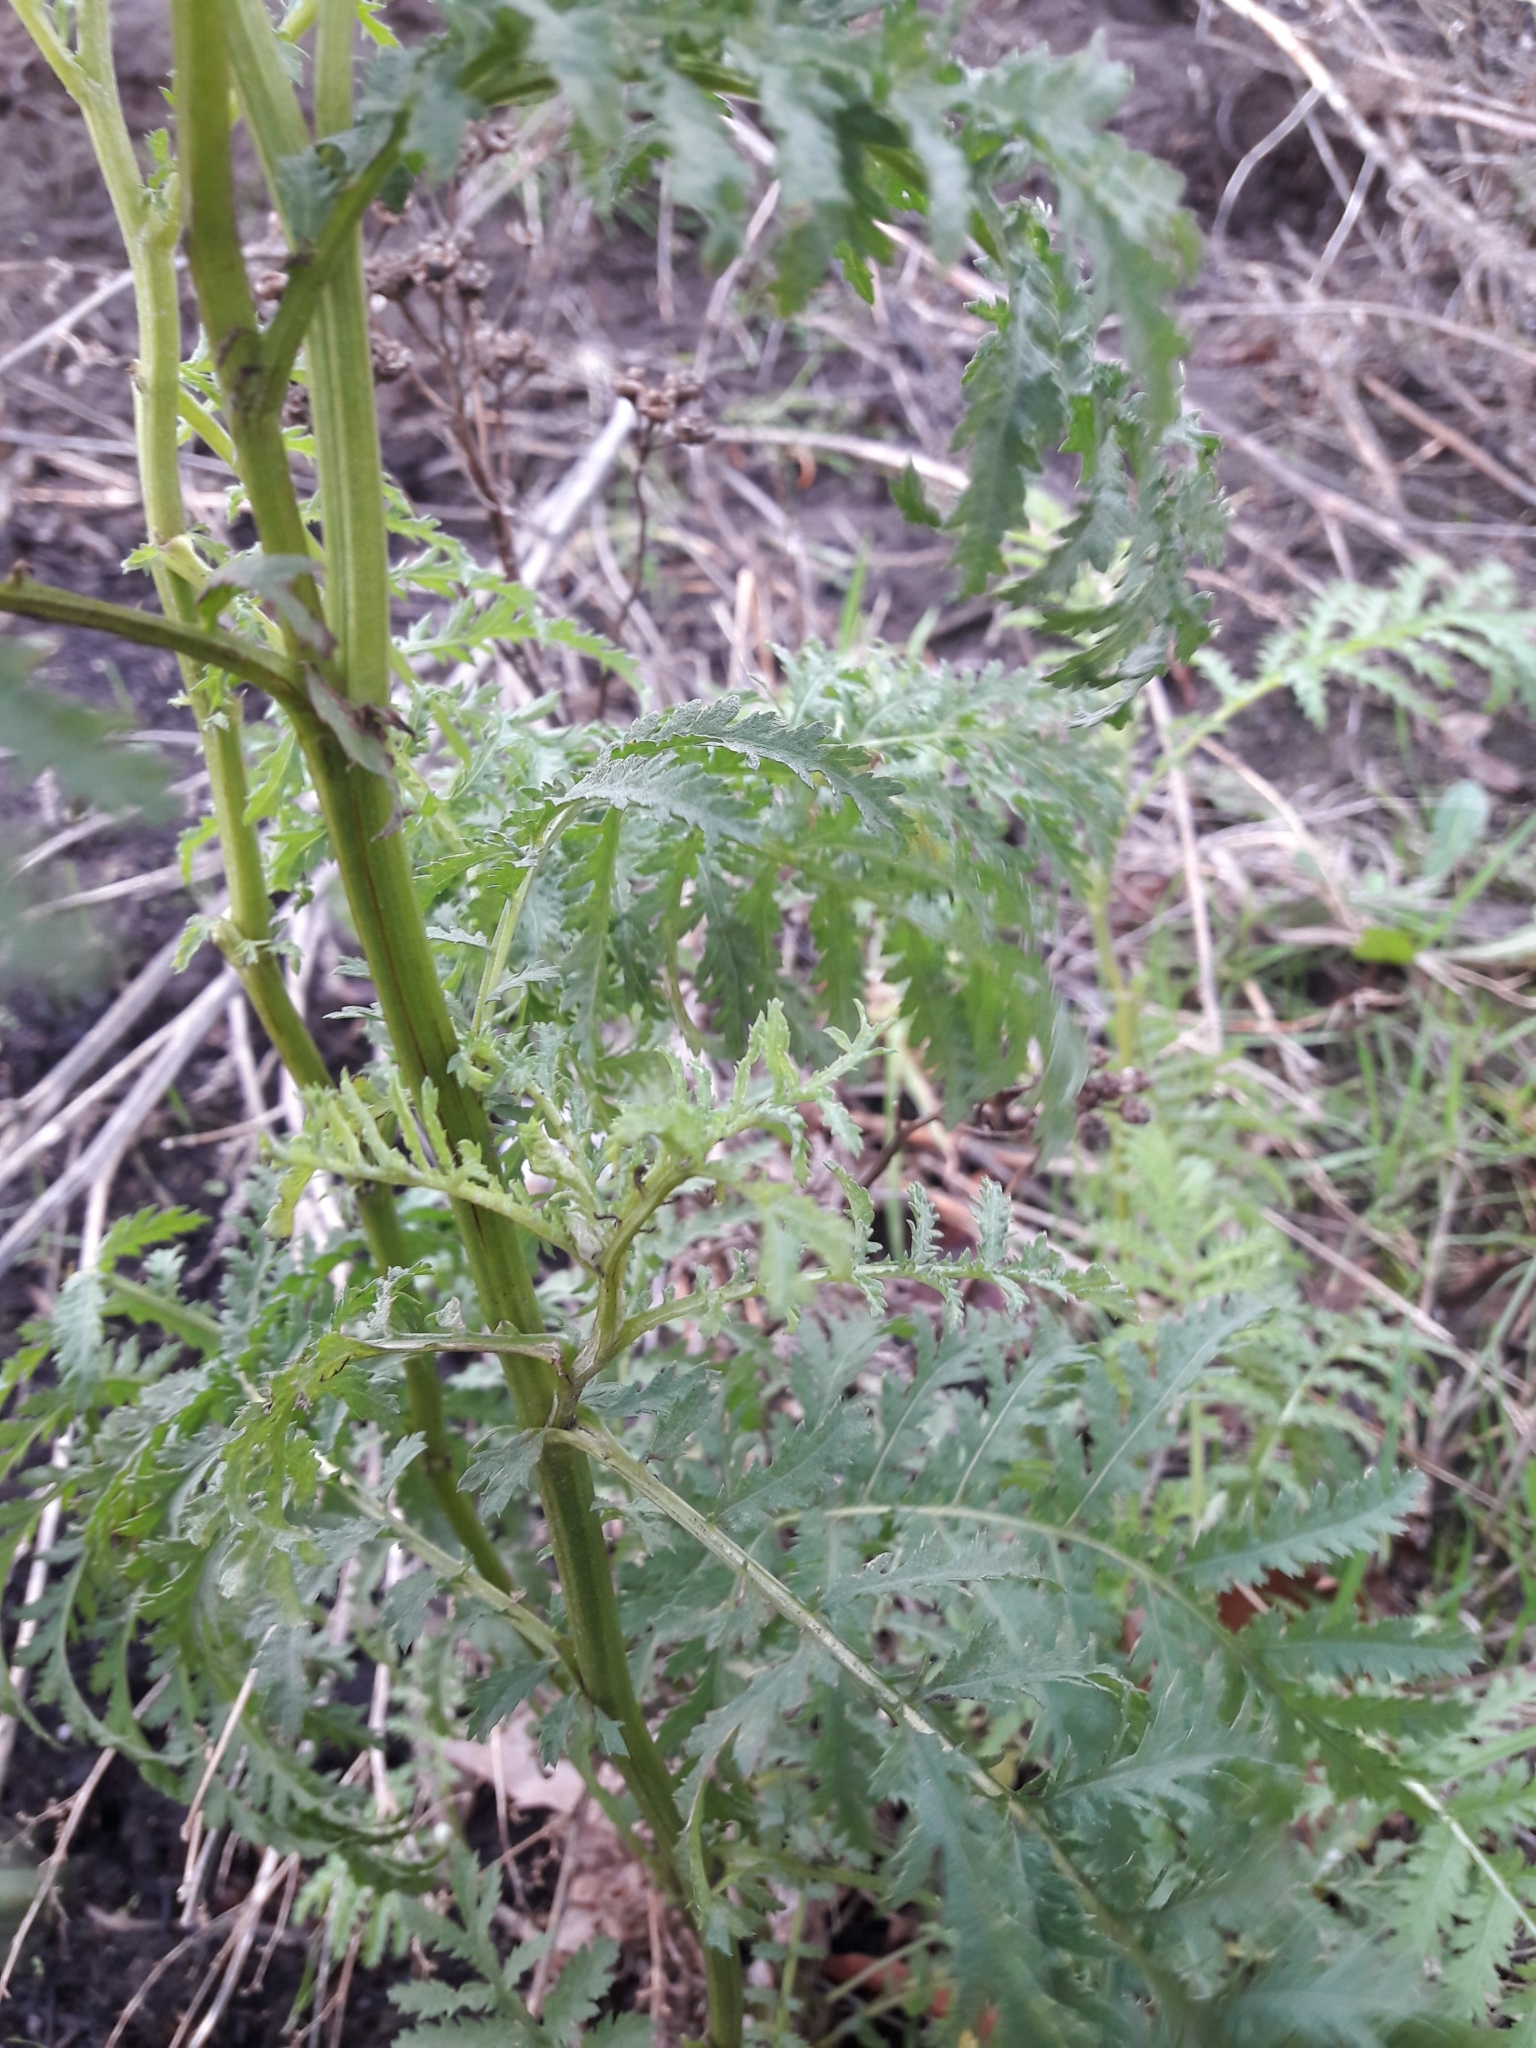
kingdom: Plantae
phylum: Tracheophyta
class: Magnoliopsida
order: Asterales
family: Asteraceae
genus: Tanacetum
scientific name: Tanacetum vulgare
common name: Common tansy
